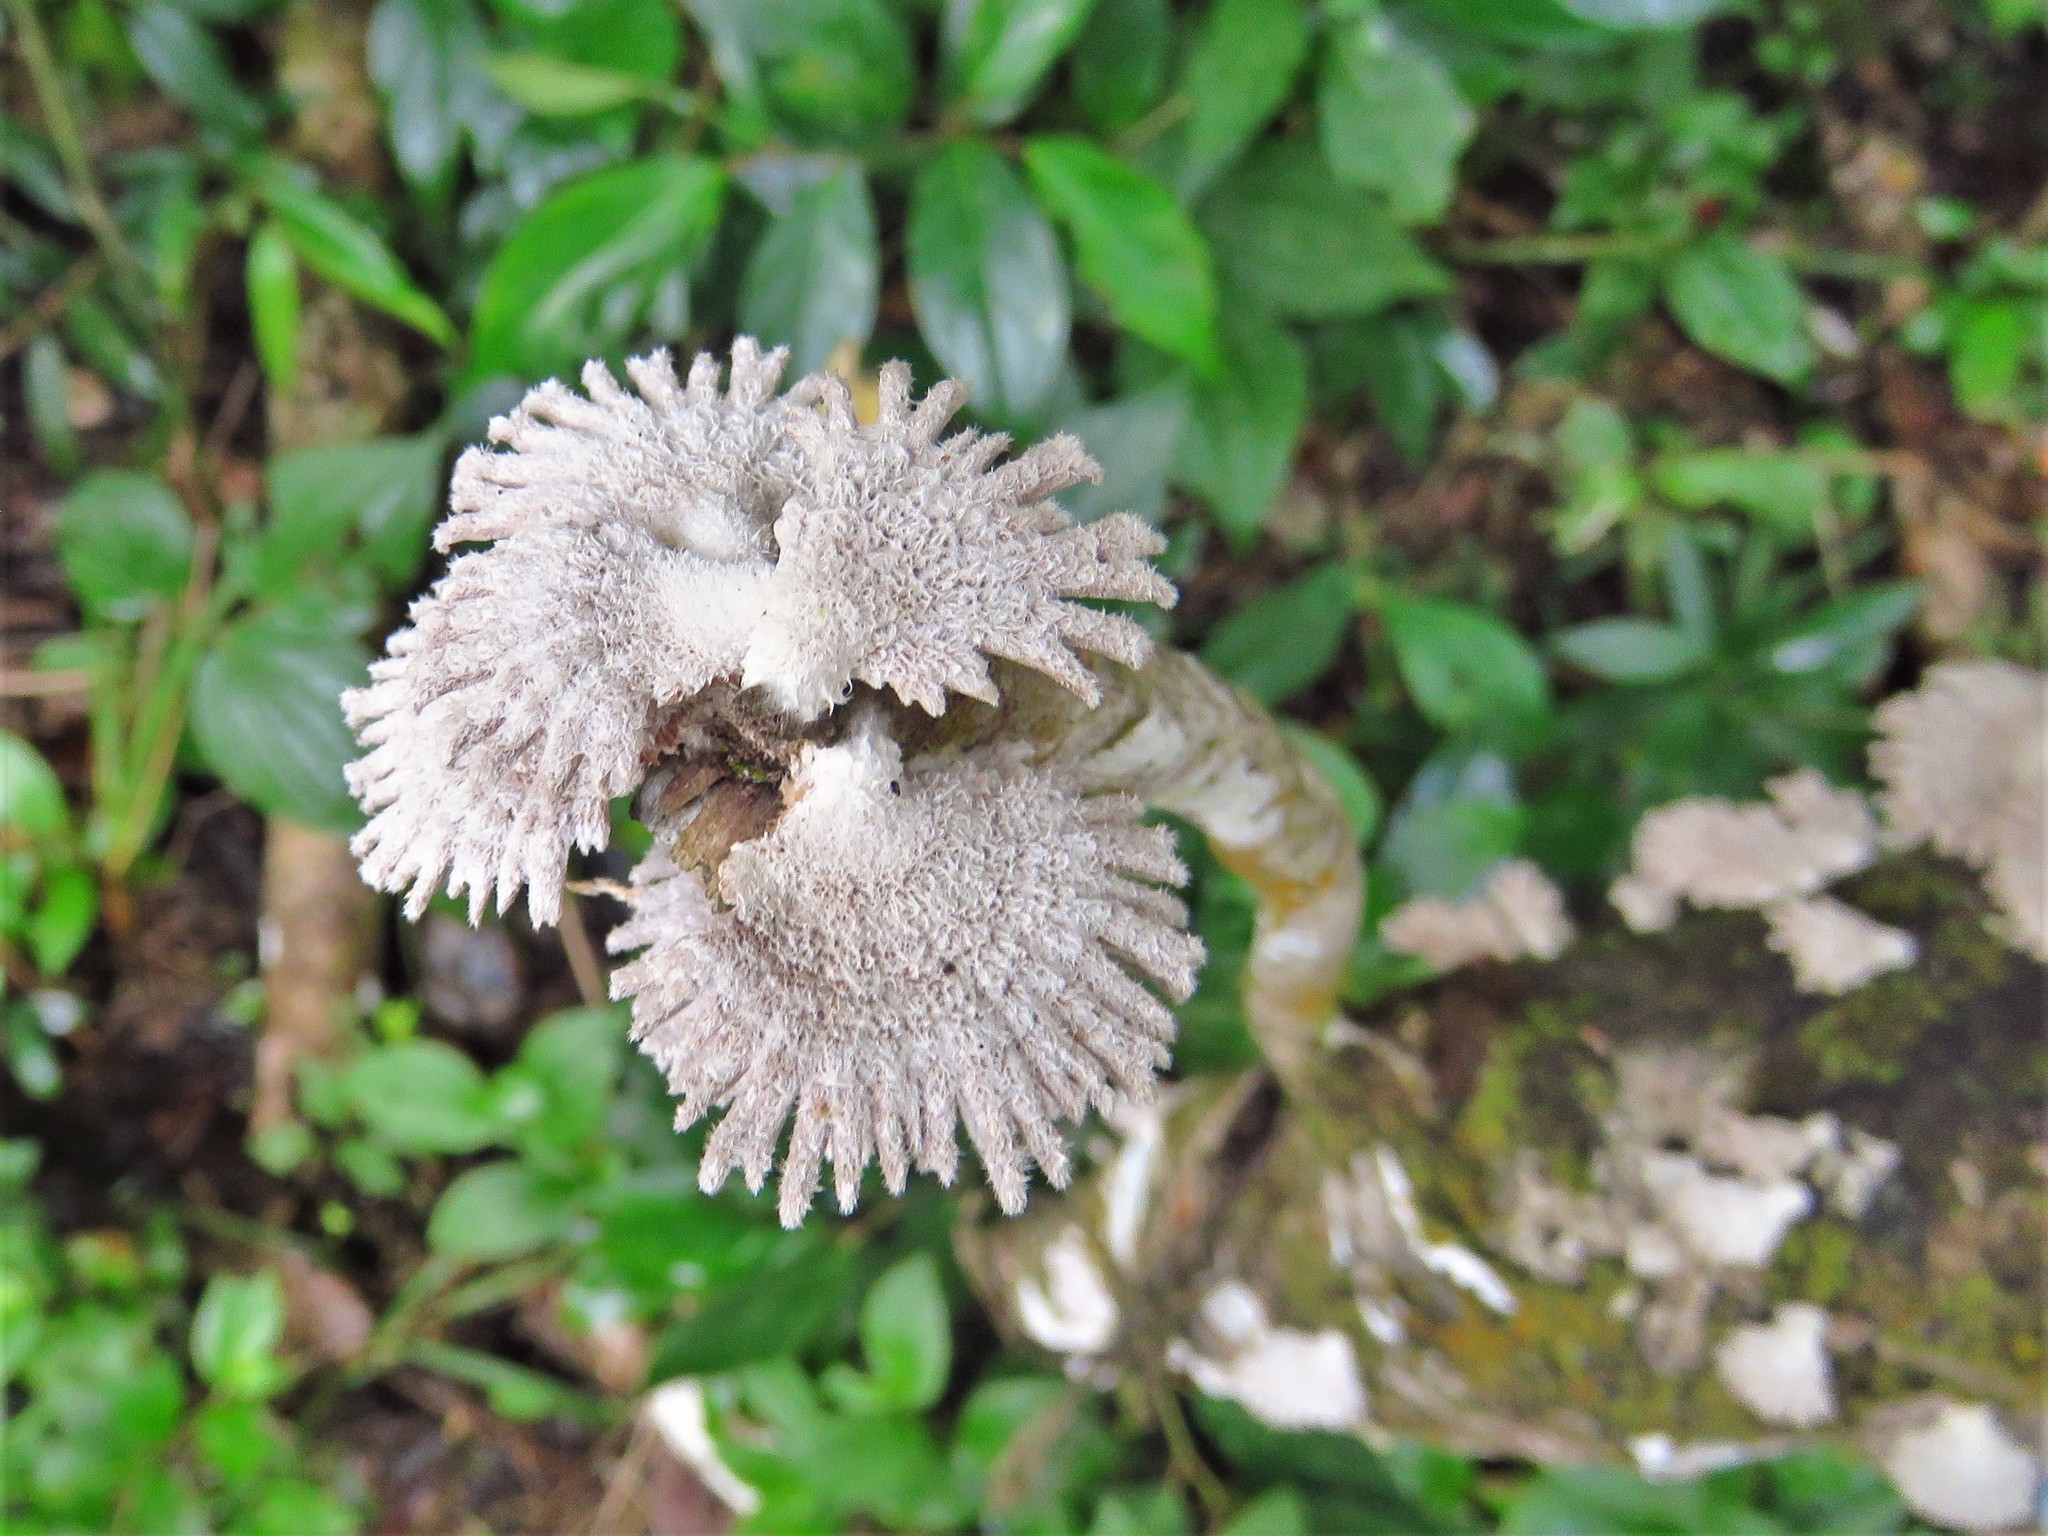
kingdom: Fungi
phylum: Basidiomycota
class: Agaricomycetes
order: Agaricales
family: Schizophyllaceae
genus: Schizophyllum
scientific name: Schizophyllum commune
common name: Common porecrust
